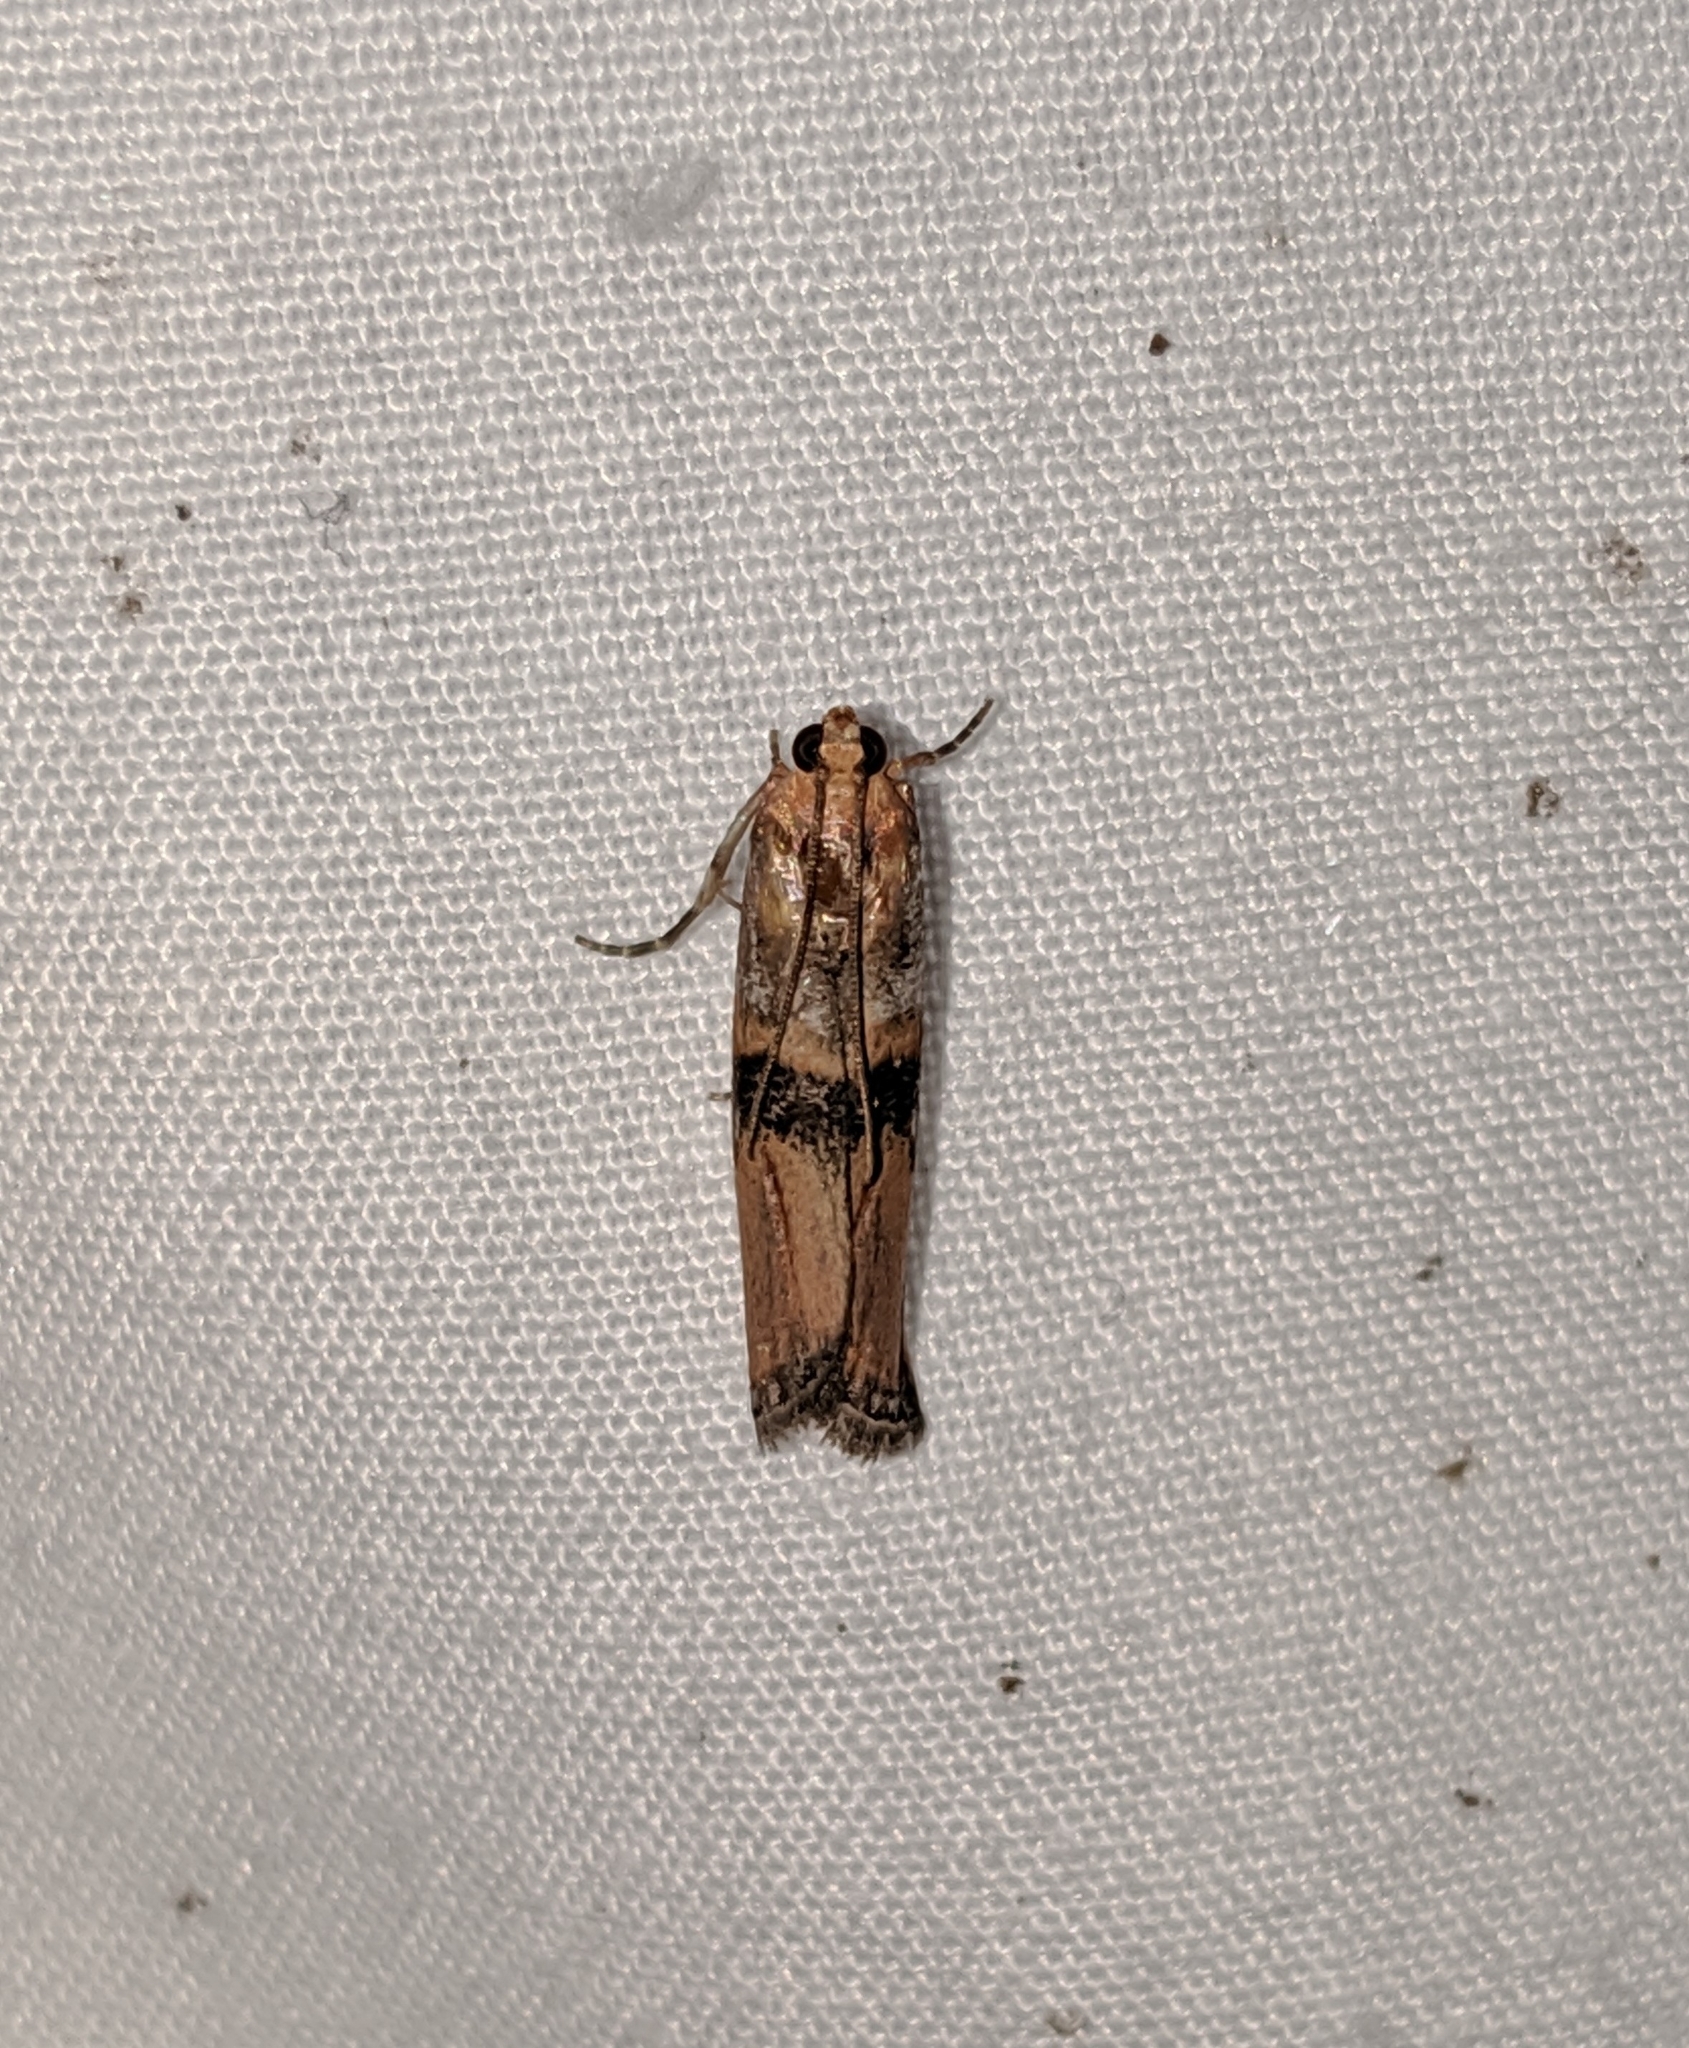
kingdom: Animalia
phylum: Arthropoda
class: Insecta
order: Lepidoptera
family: Pyralidae
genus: Dasypyga
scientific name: Dasypyga alternosquamella
